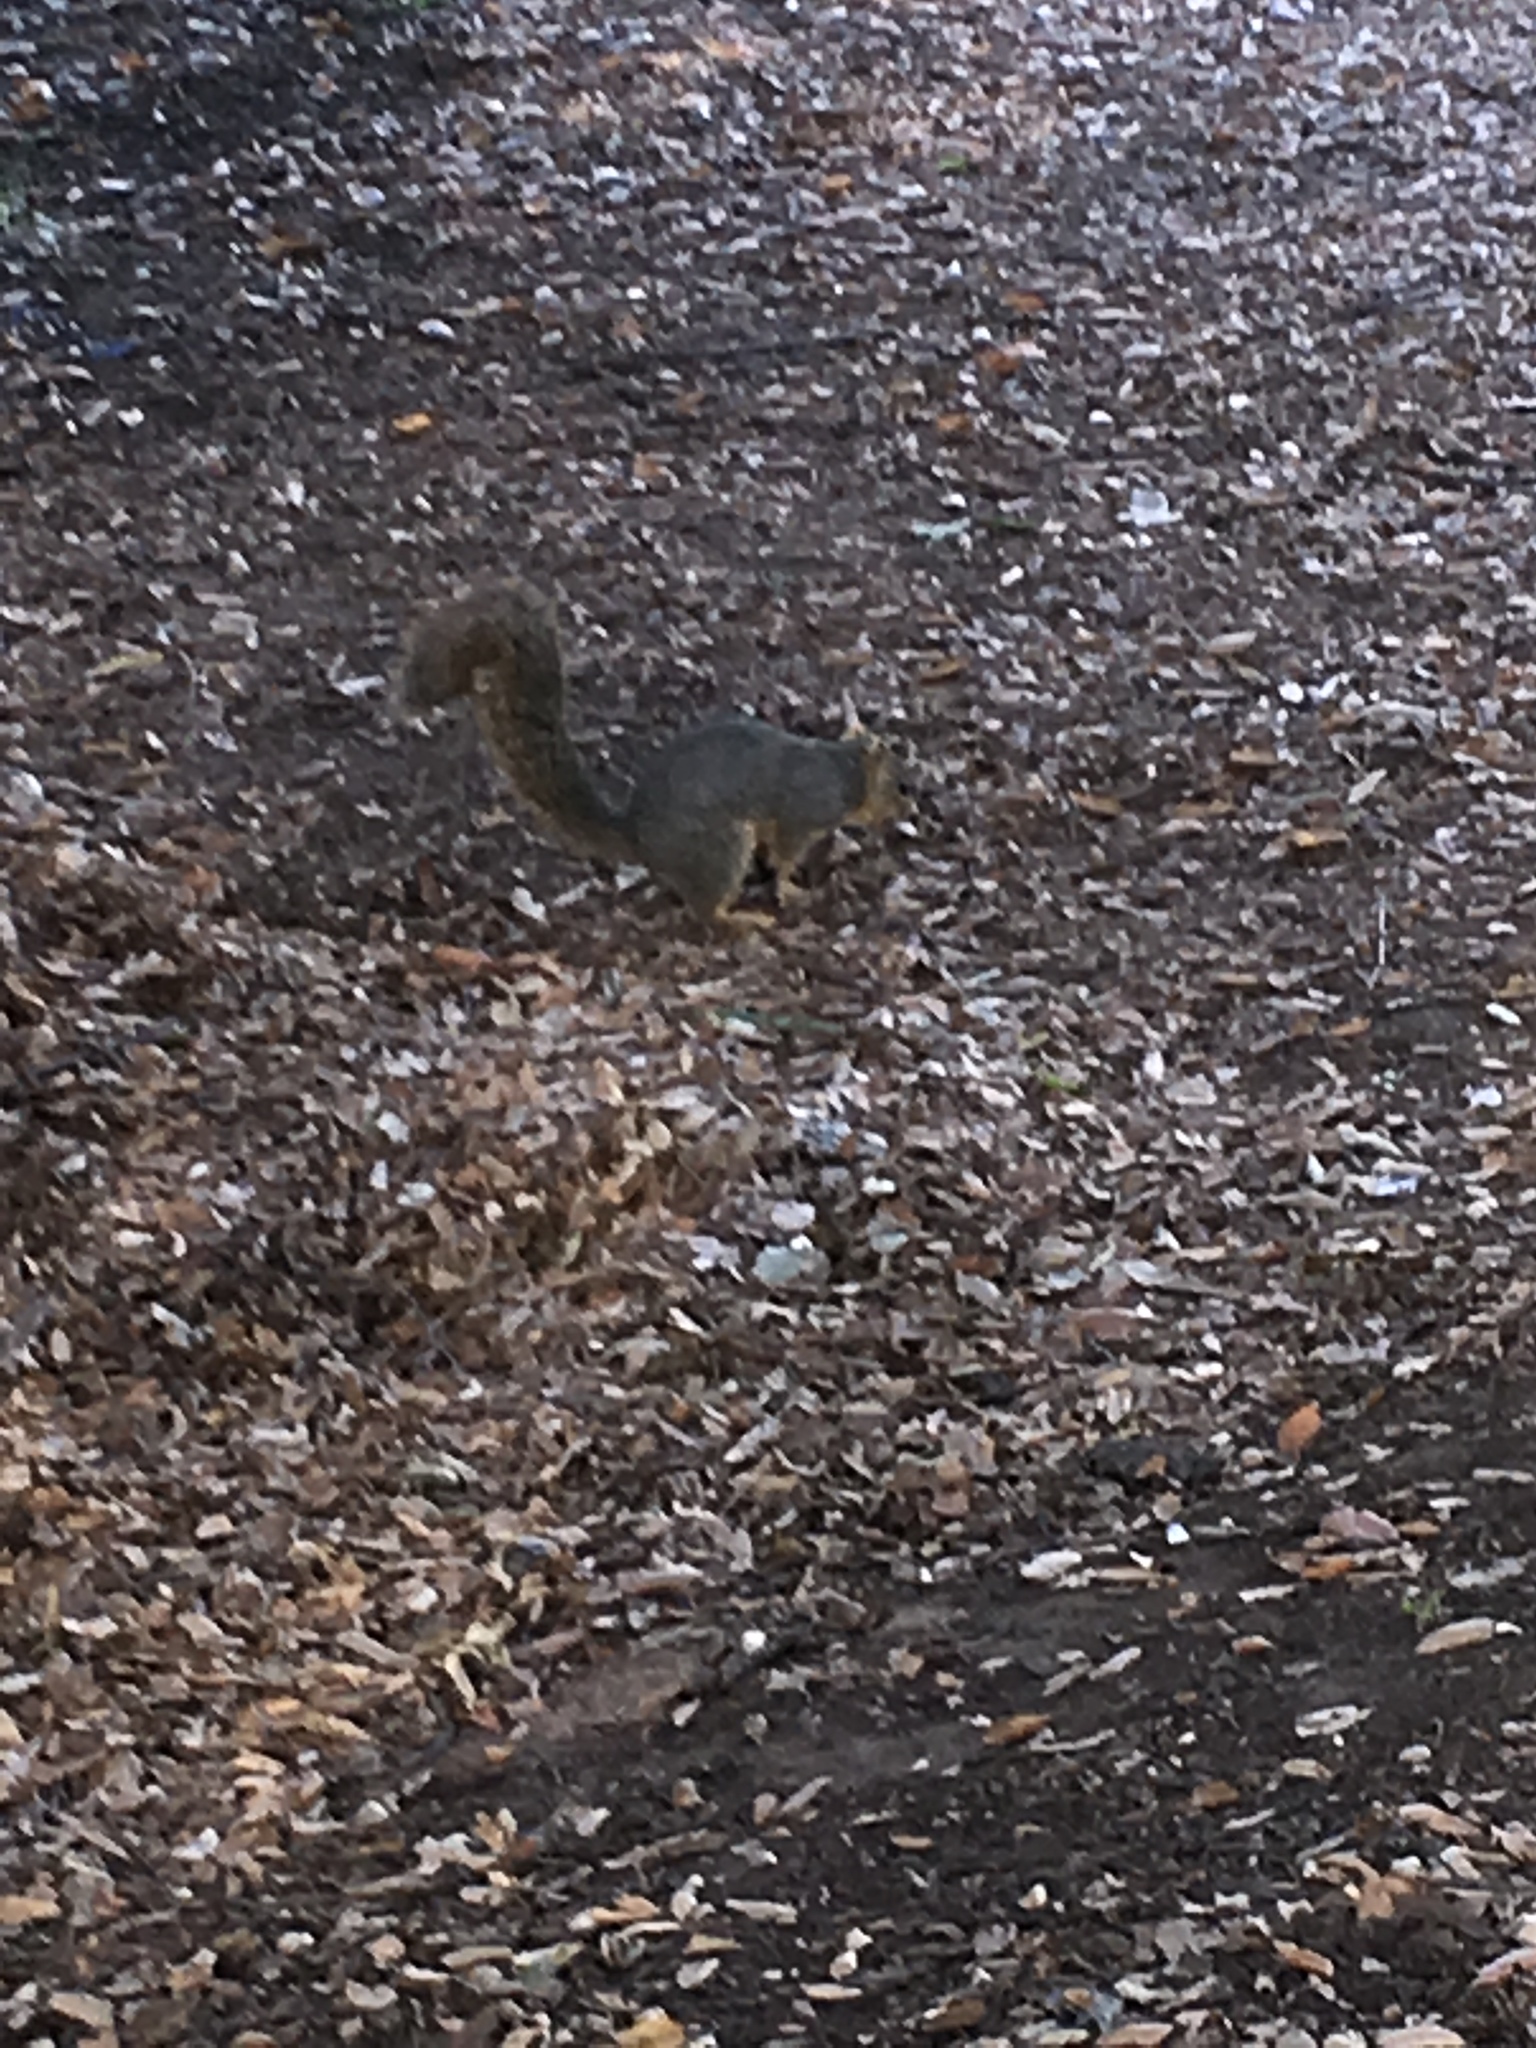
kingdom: Animalia
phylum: Chordata
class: Mammalia
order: Rodentia
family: Sciuridae
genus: Sciurus
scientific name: Sciurus niger
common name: Fox squirrel
